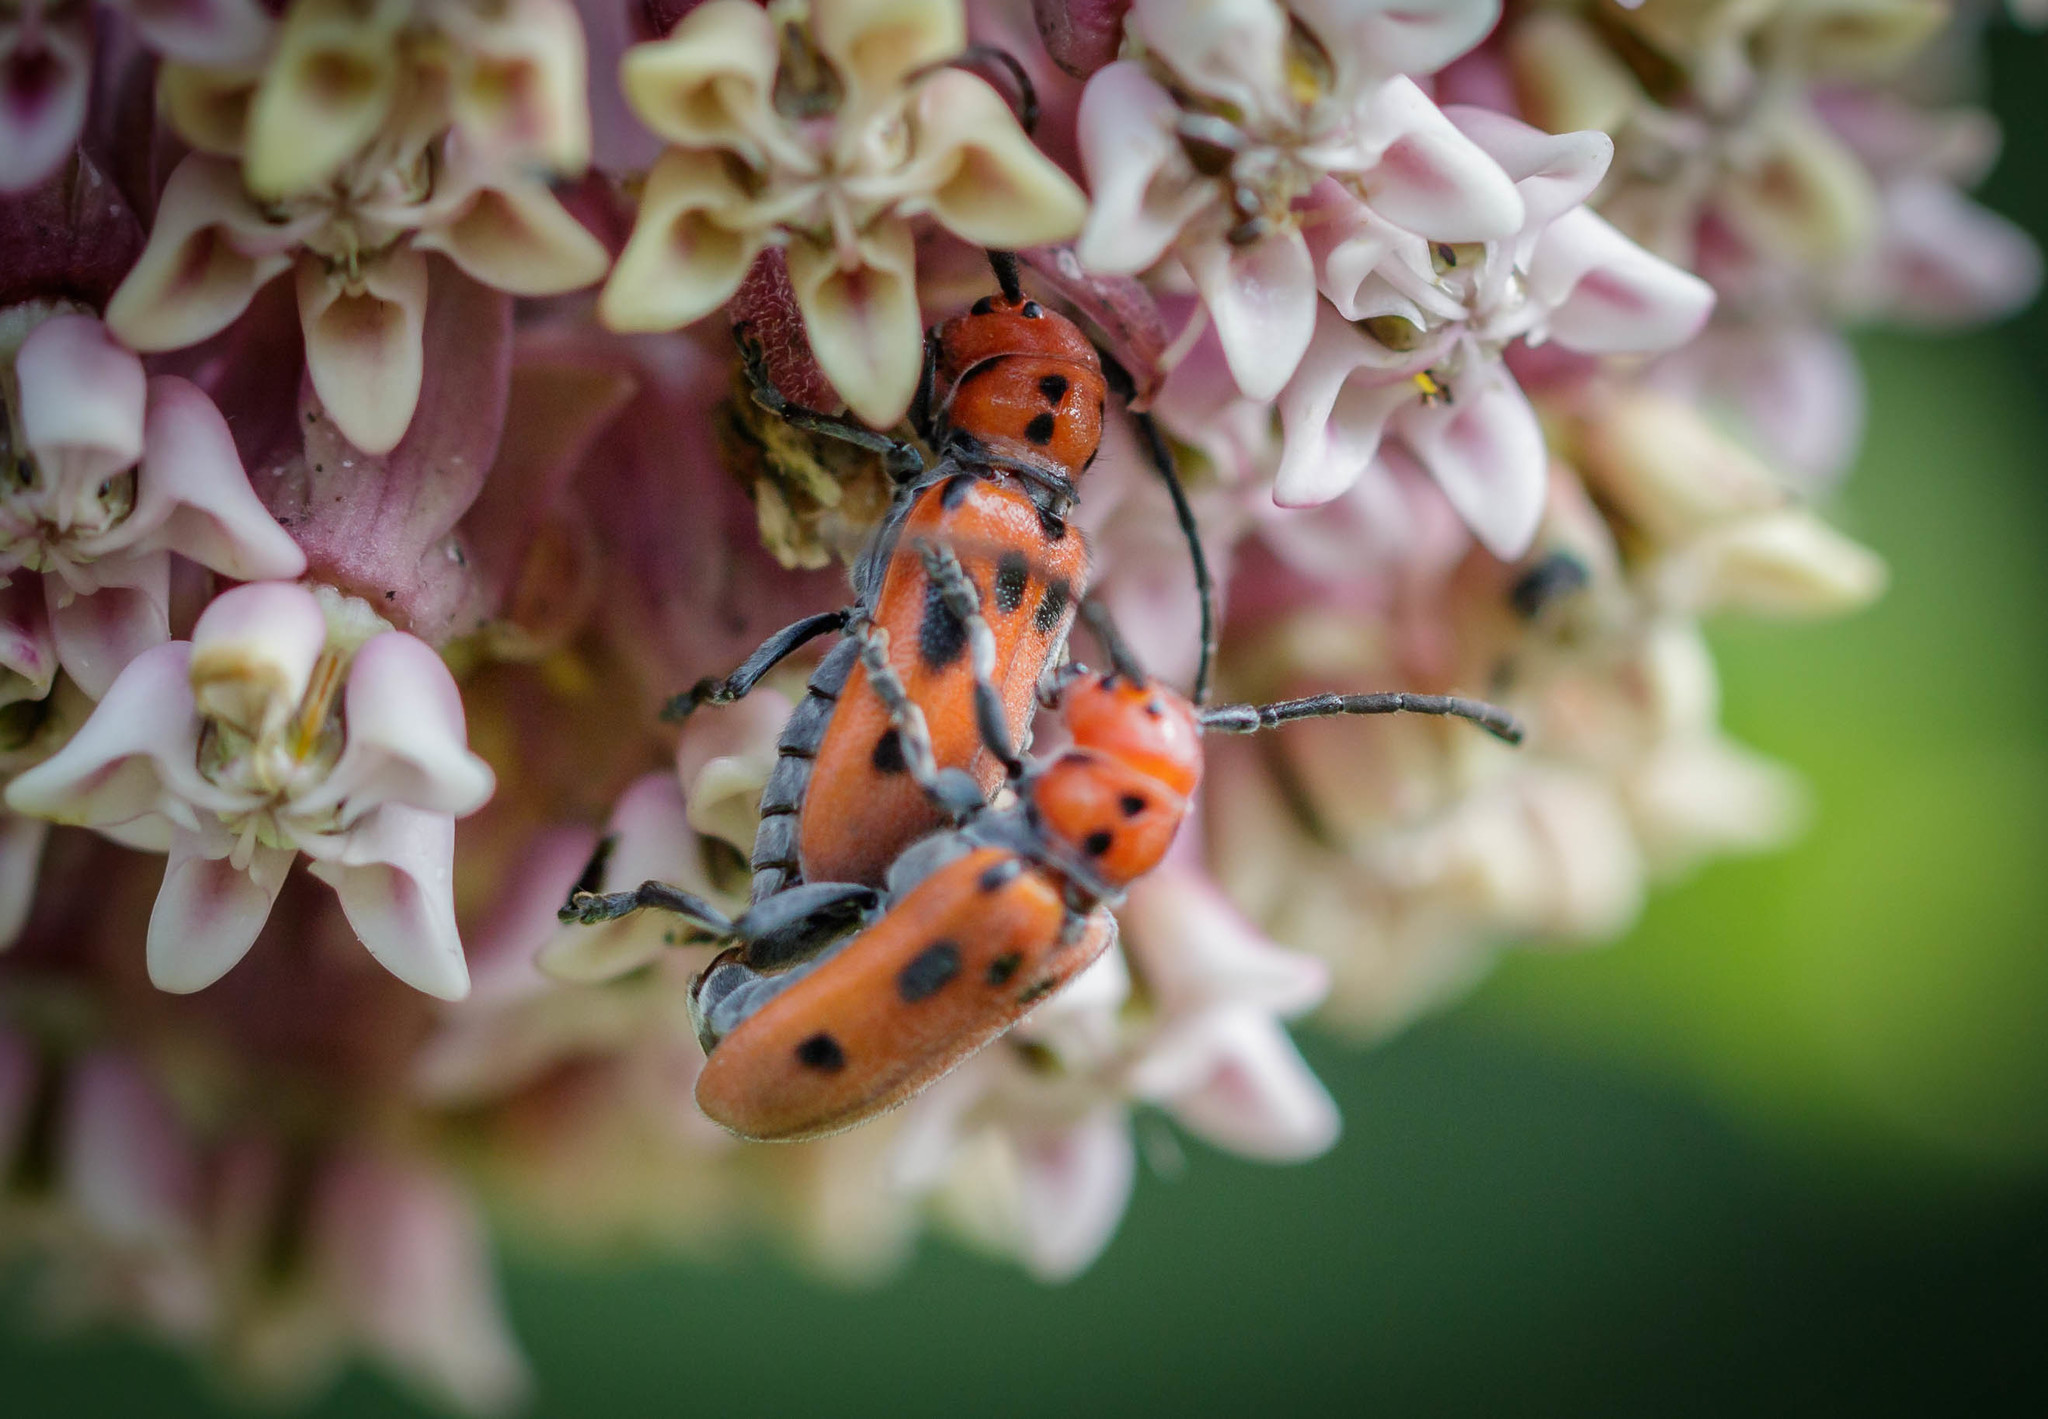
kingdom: Animalia
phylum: Arthropoda
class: Insecta
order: Coleoptera
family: Cerambycidae
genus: Tetraopes
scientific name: Tetraopes tetrophthalmus
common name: Red milkweed beetle
